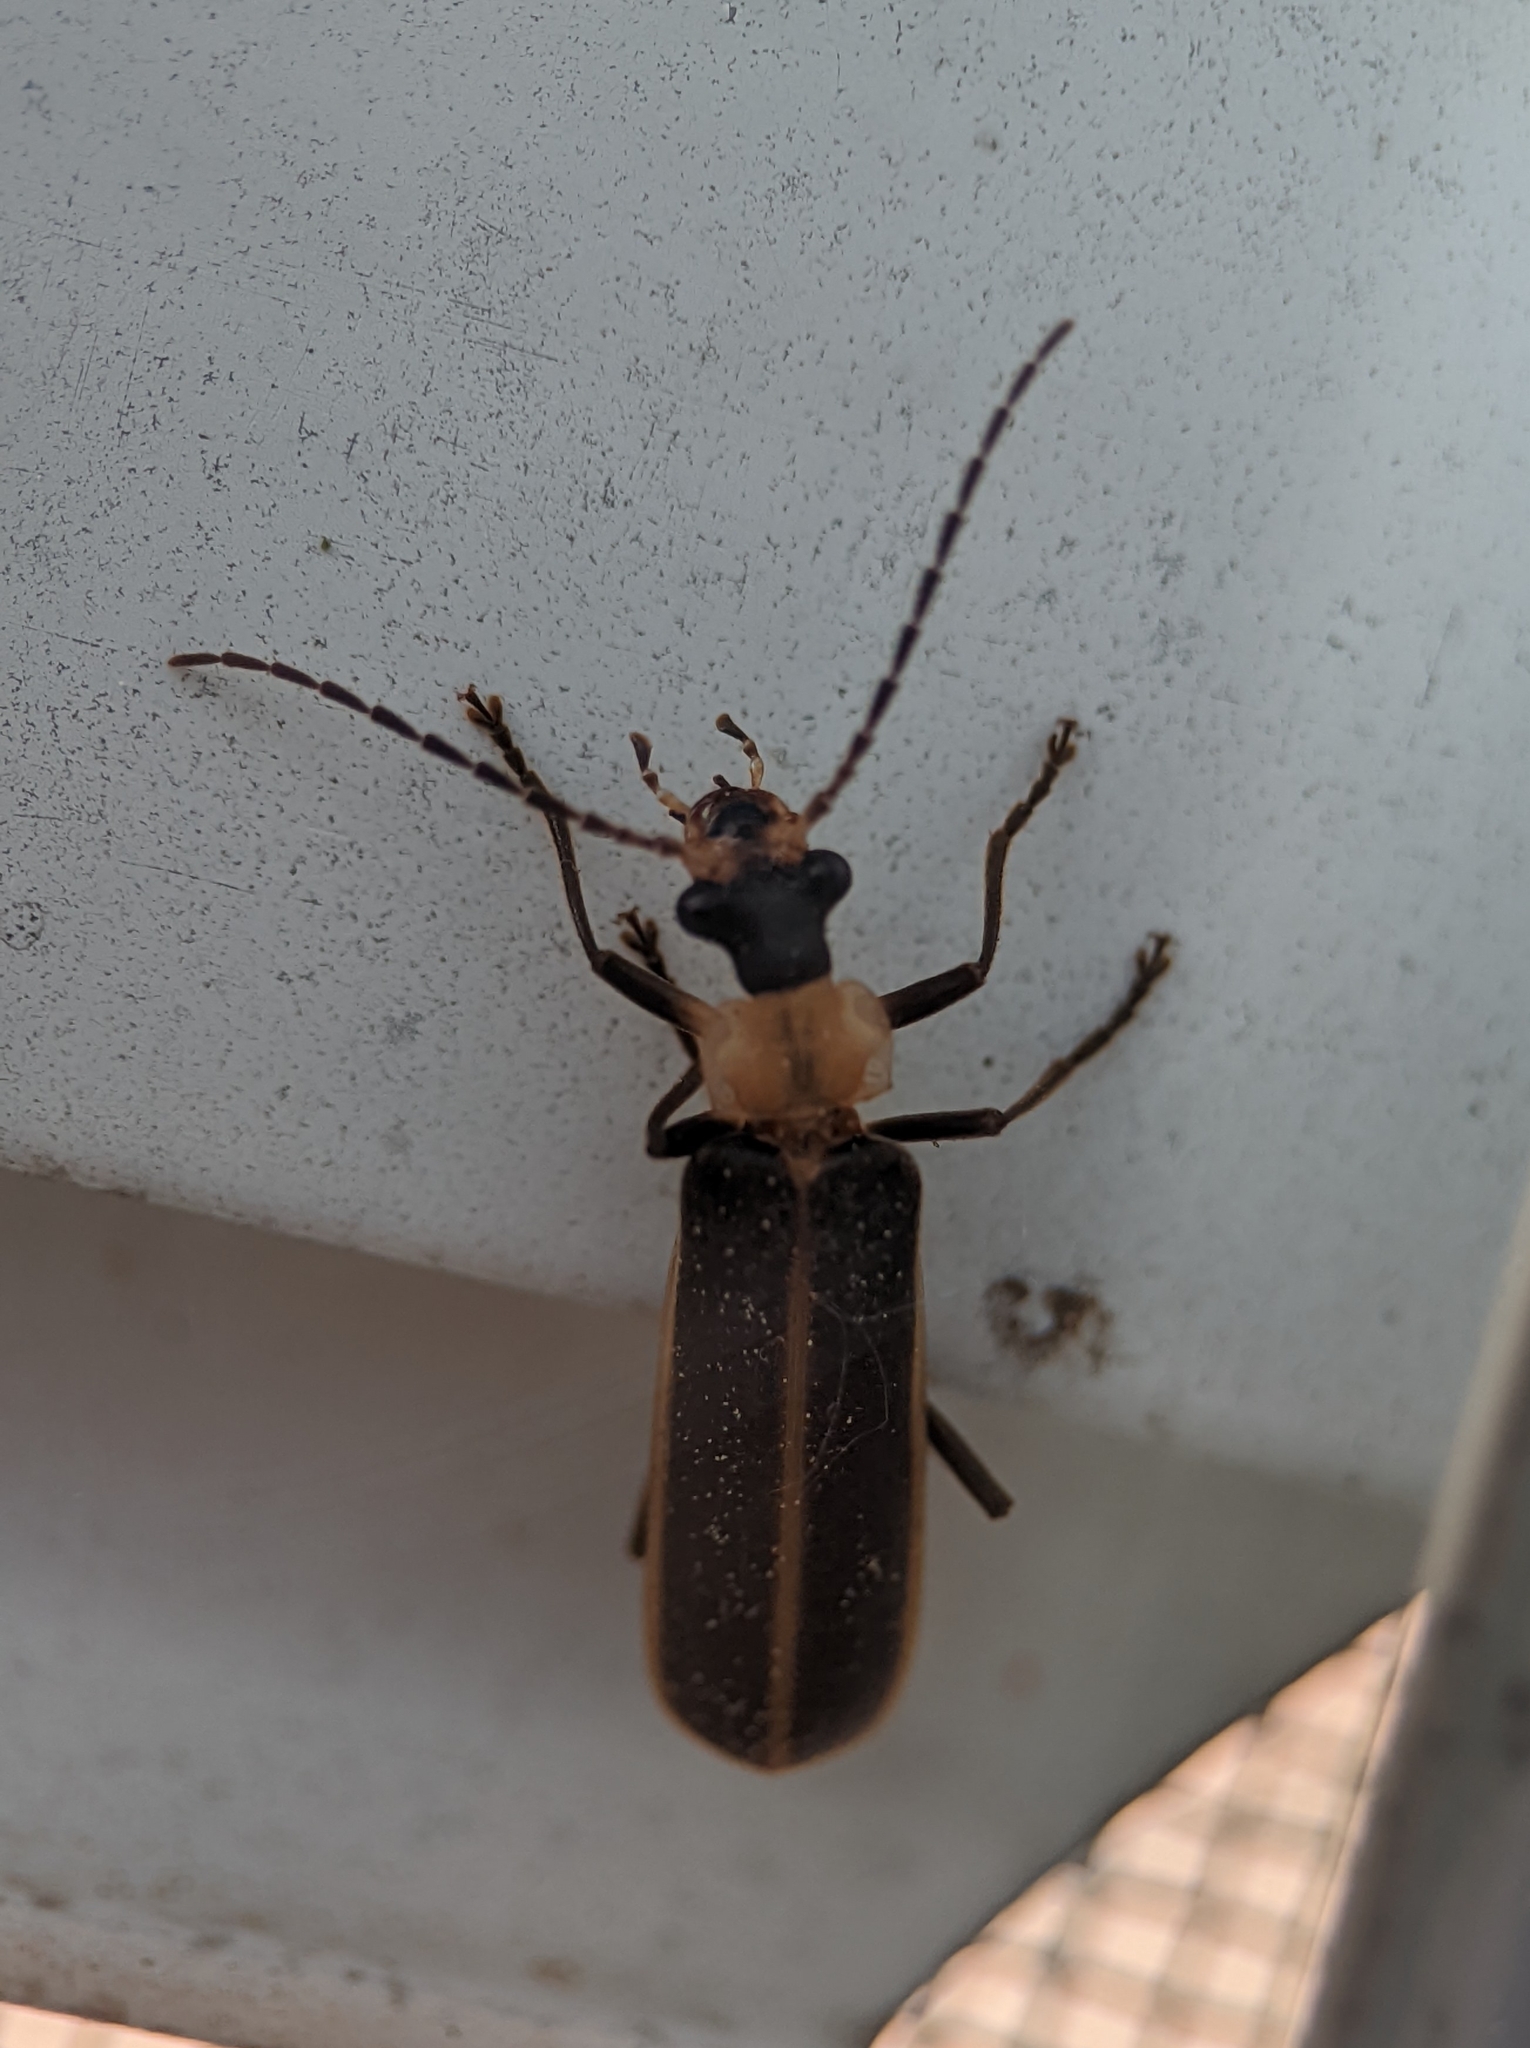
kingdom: Animalia
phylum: Arthropoda
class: Insecta
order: Coleoptera
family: Cantharidae
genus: Podabrus
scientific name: Podabrus flavicollis
